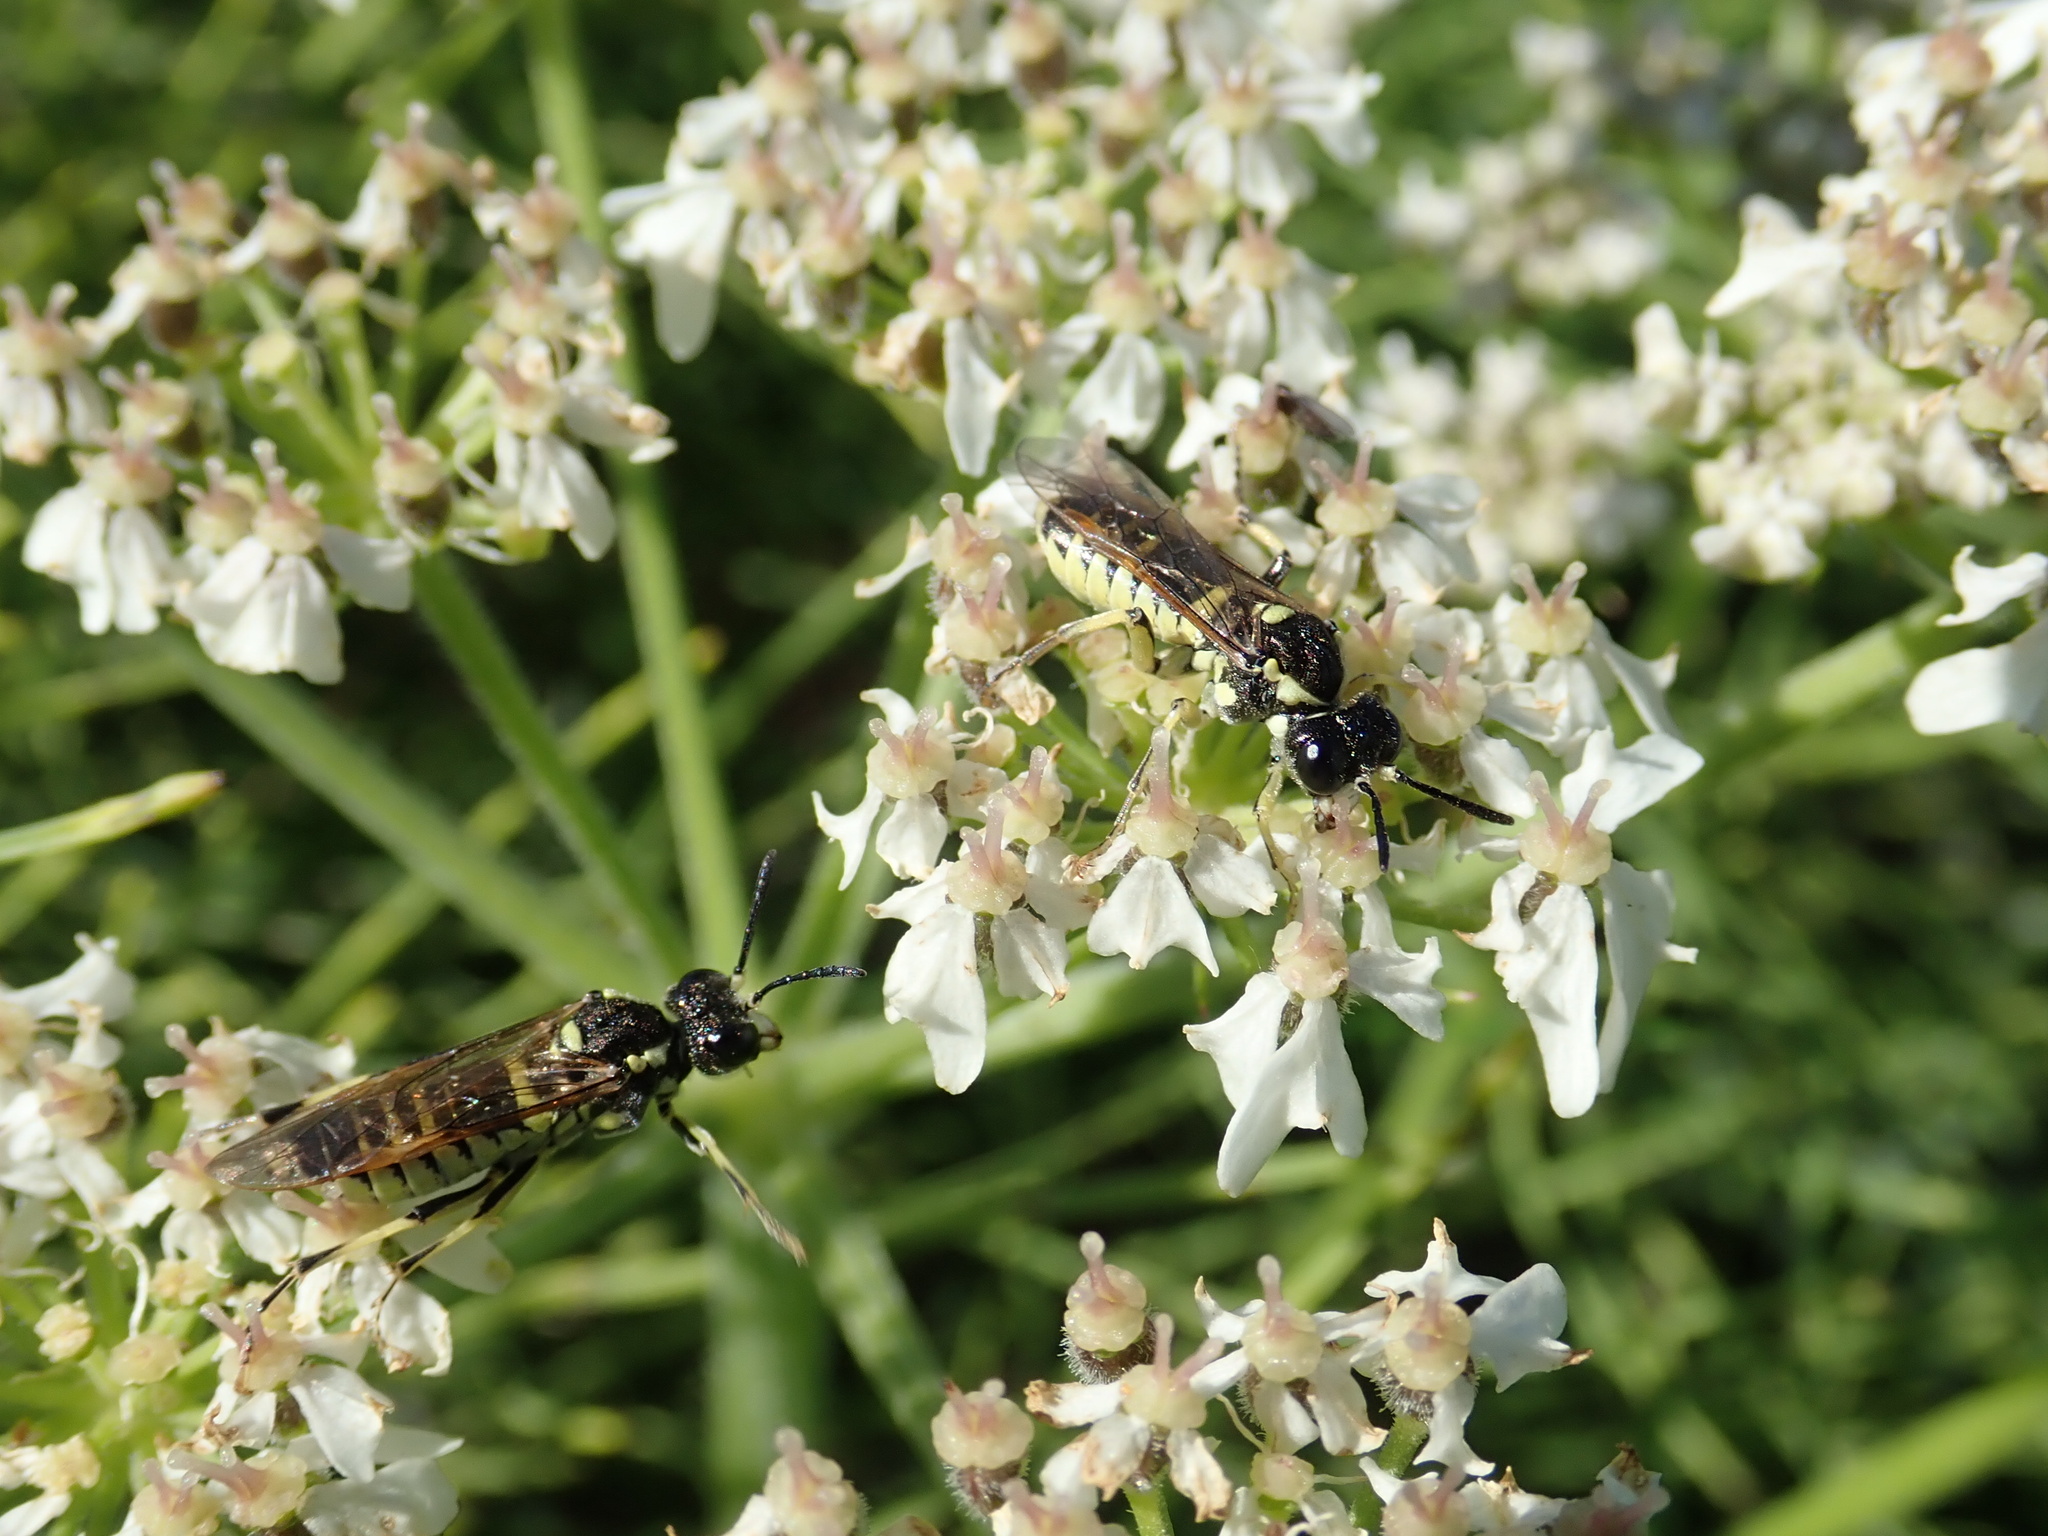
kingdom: Plantae
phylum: Tracheophyta
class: Magnoliopsida
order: Apiales
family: Apiaceae
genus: Heracleum
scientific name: Heracleum sphondylium
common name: Hogweed
